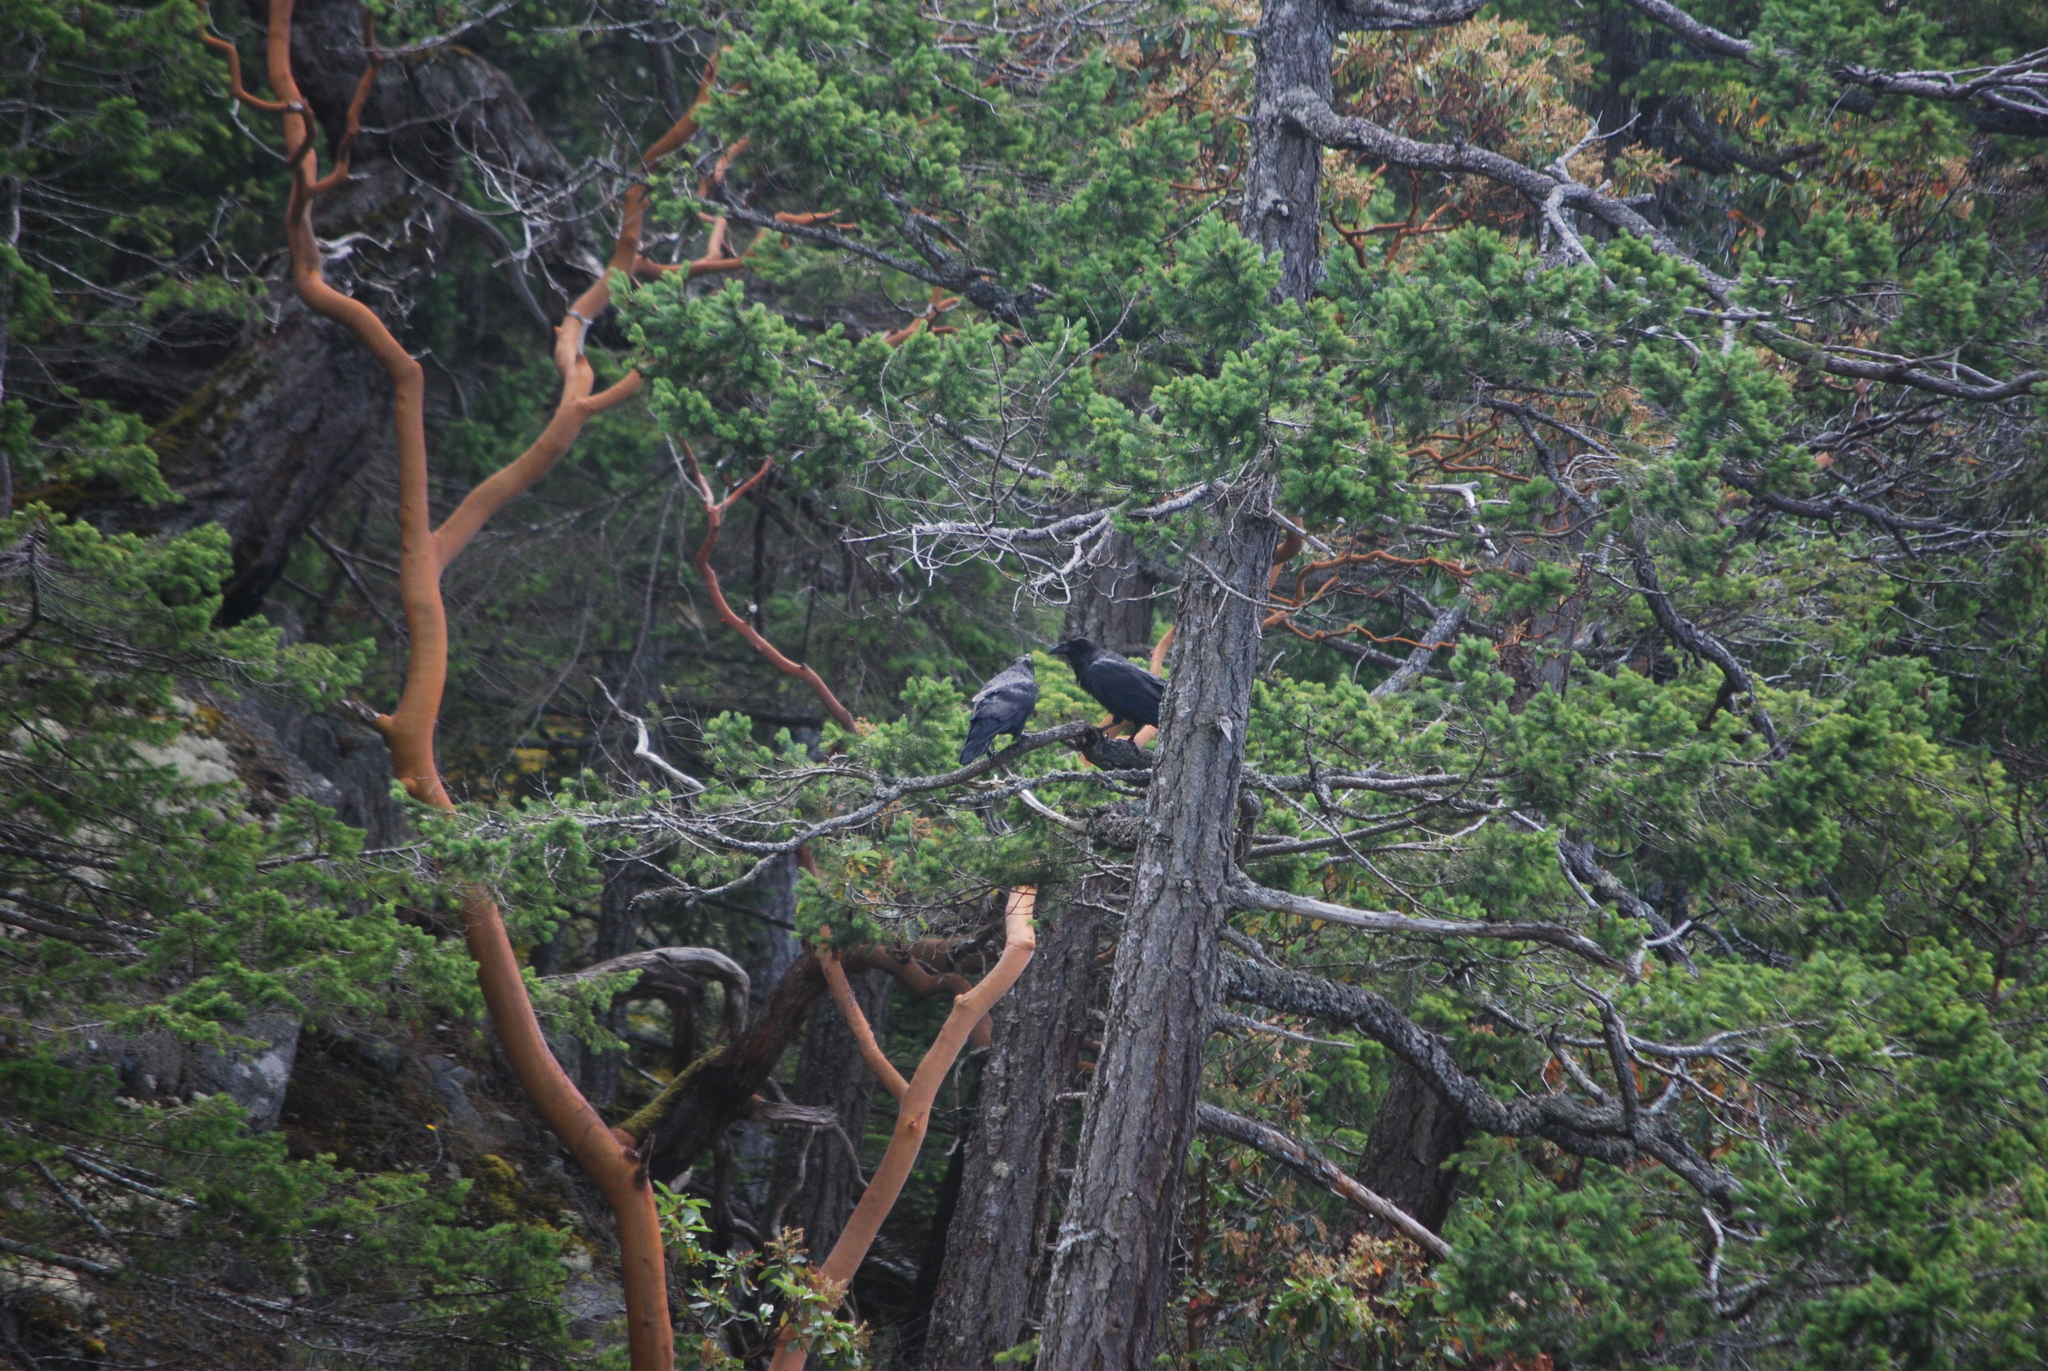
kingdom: Animalia
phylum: Chordata
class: Aves
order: Passeriformes
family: Corvidae
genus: Corvus
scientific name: Corvus corax
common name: Common raven
